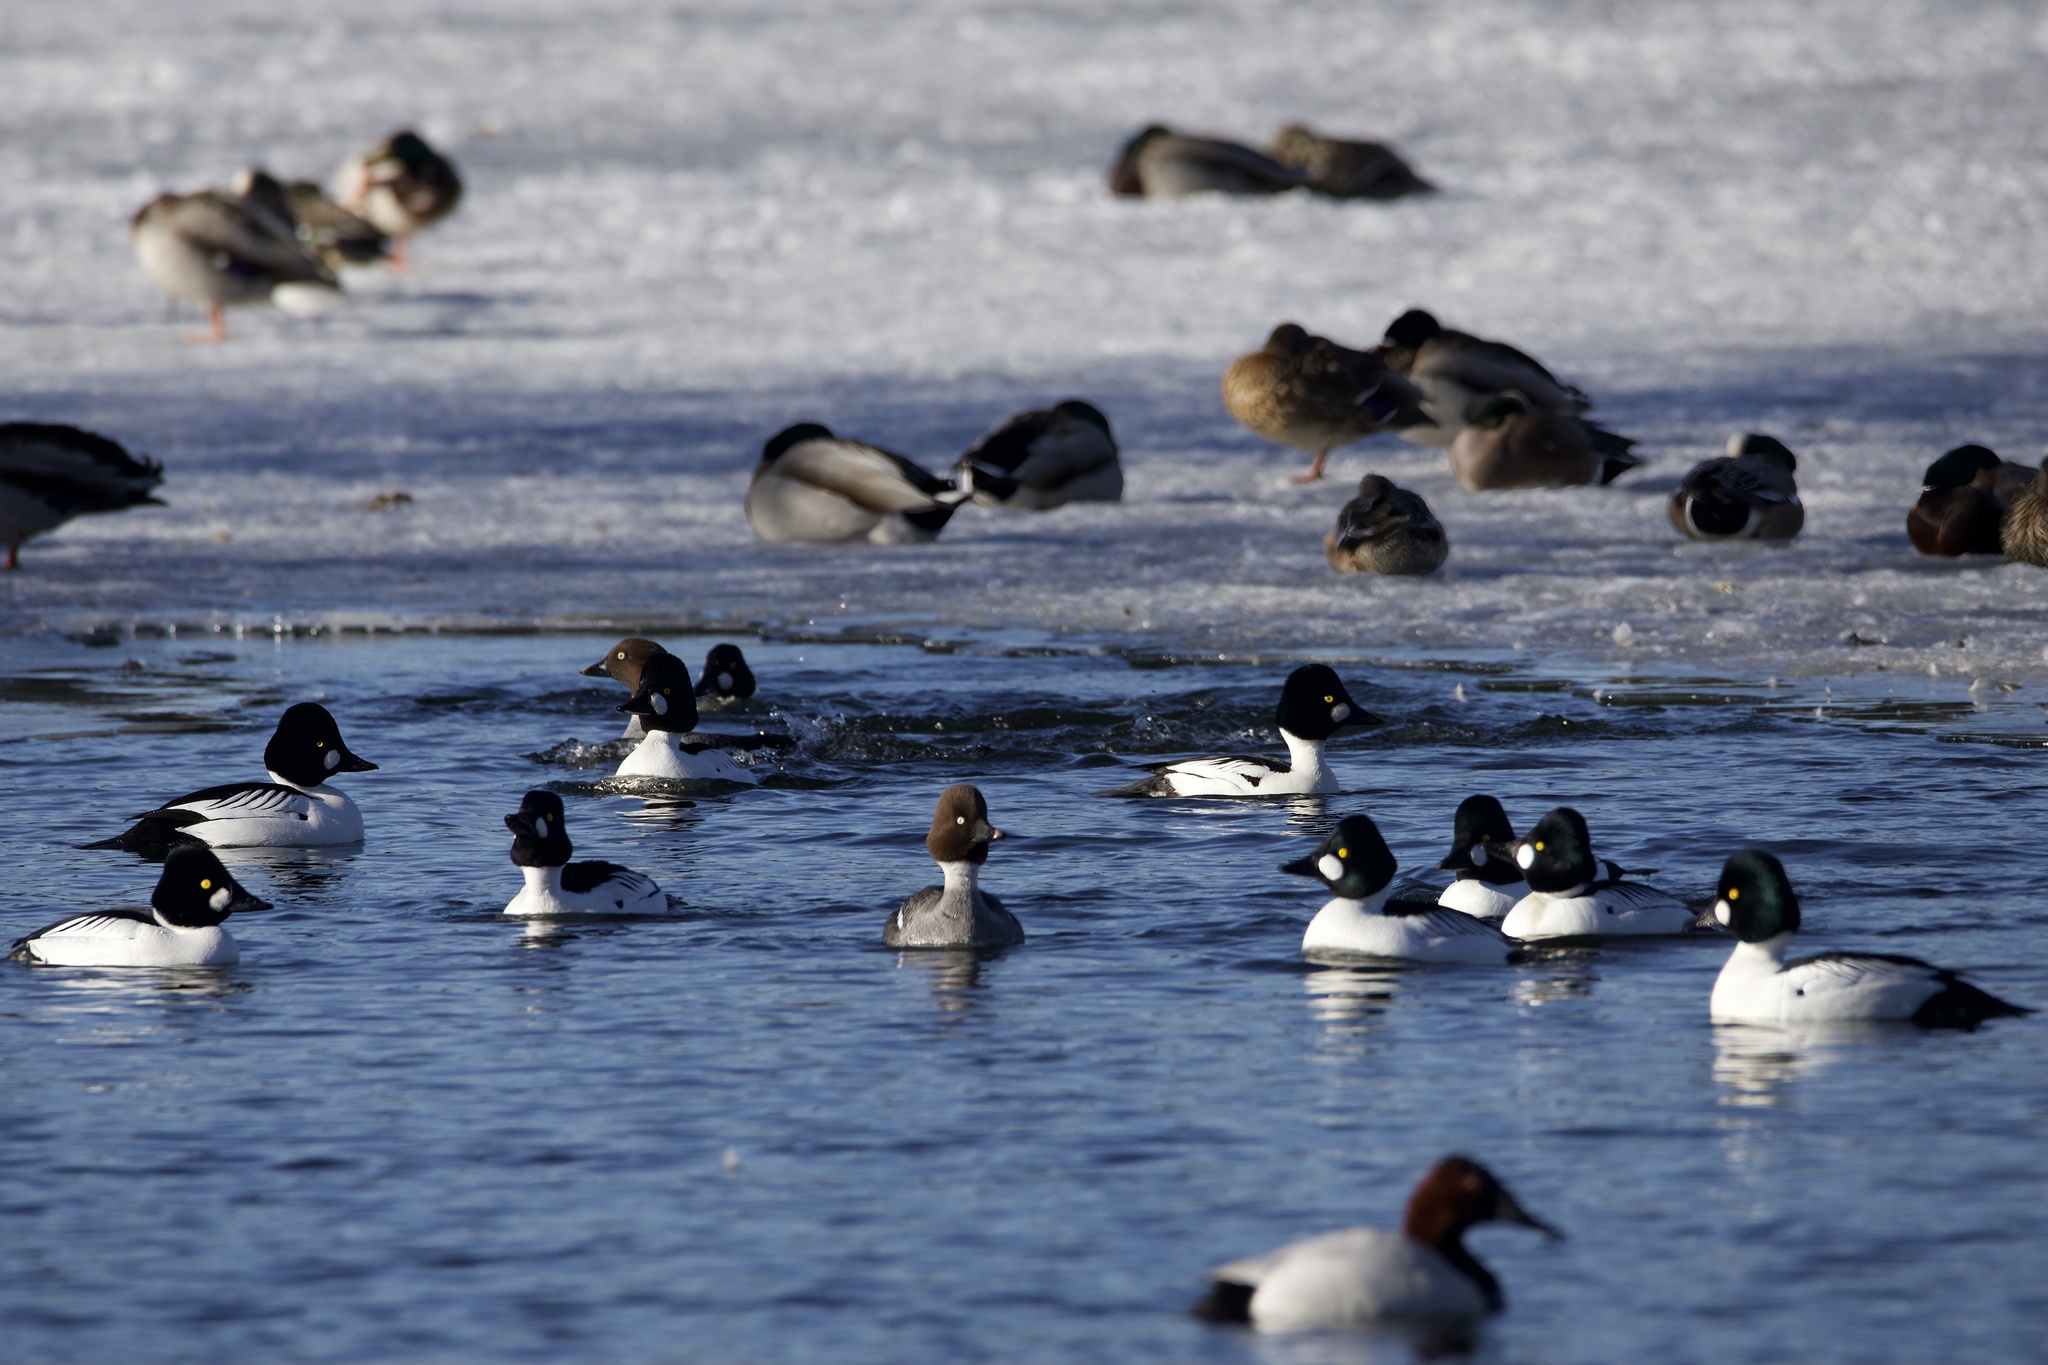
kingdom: Animalia
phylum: Chordata
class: Aves
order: Anseriformes
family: Anatidae
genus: Bucephala
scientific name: Bucephala clangula
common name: Common goldeneye
